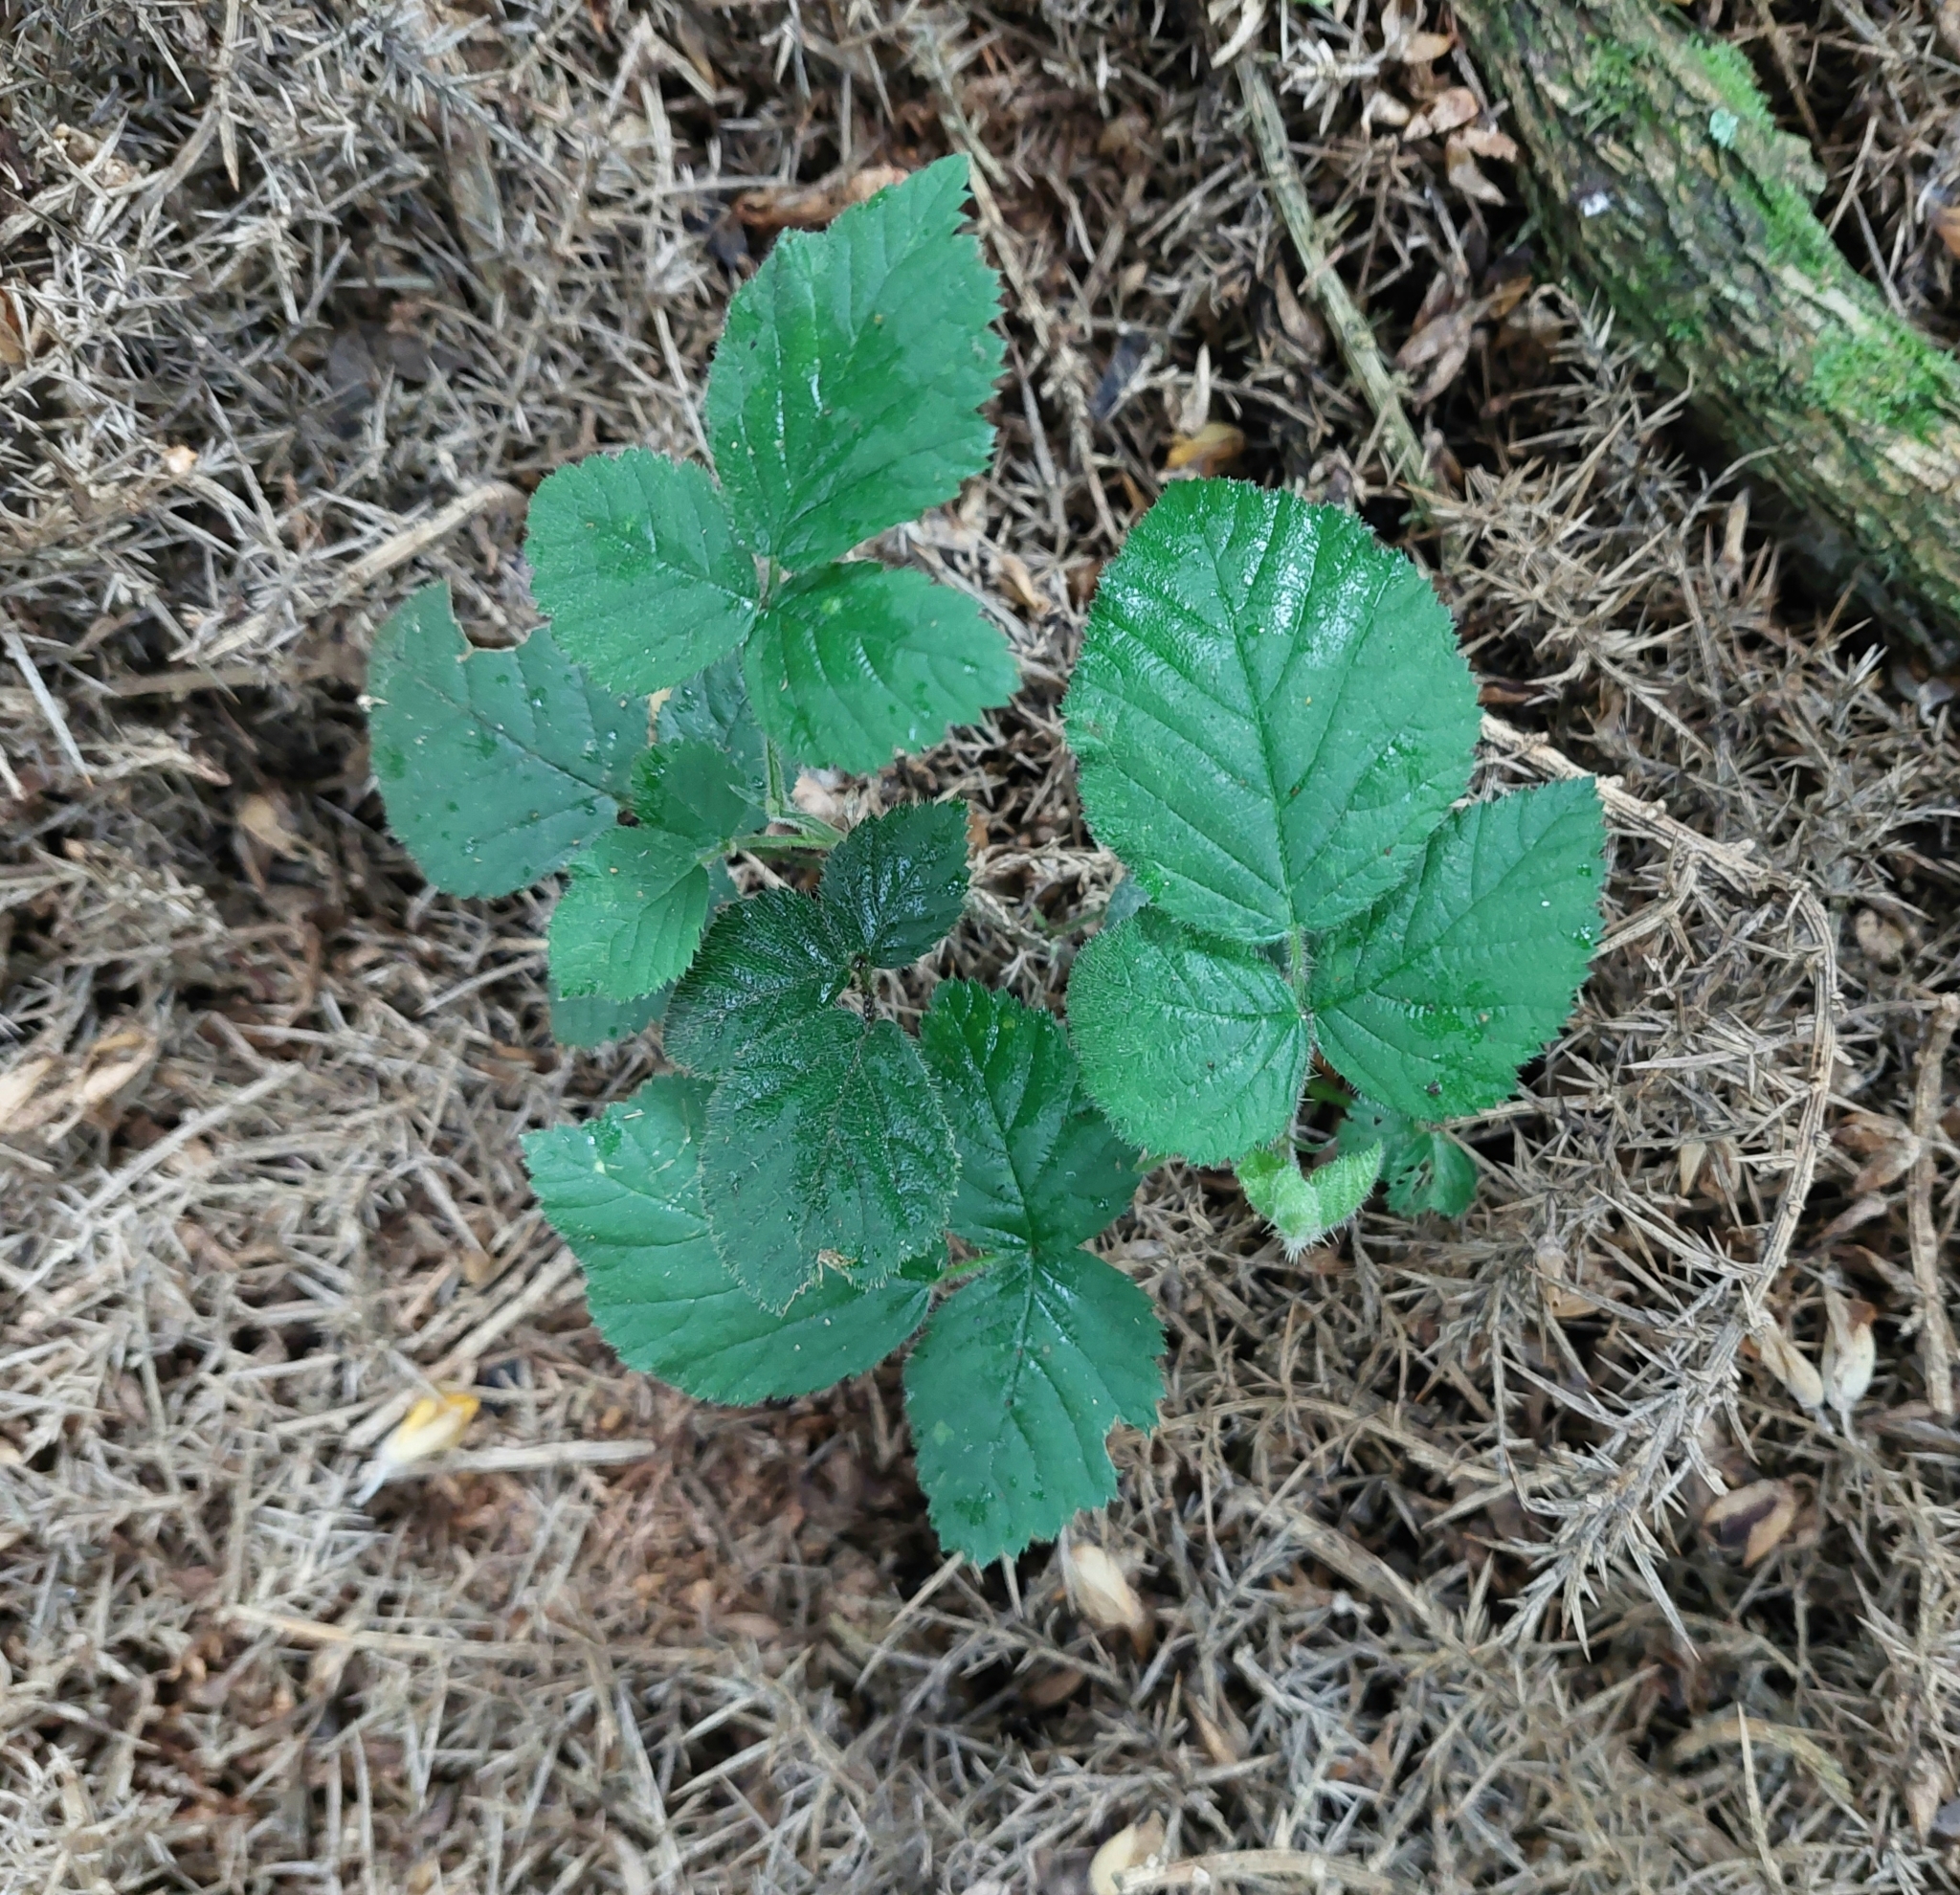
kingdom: Plantae
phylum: Tracheophyta
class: Magnoliopsida
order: Rosales
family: Rosaceae
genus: Rubus
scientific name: Rubus fruticosus
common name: Blackberry, bramble
